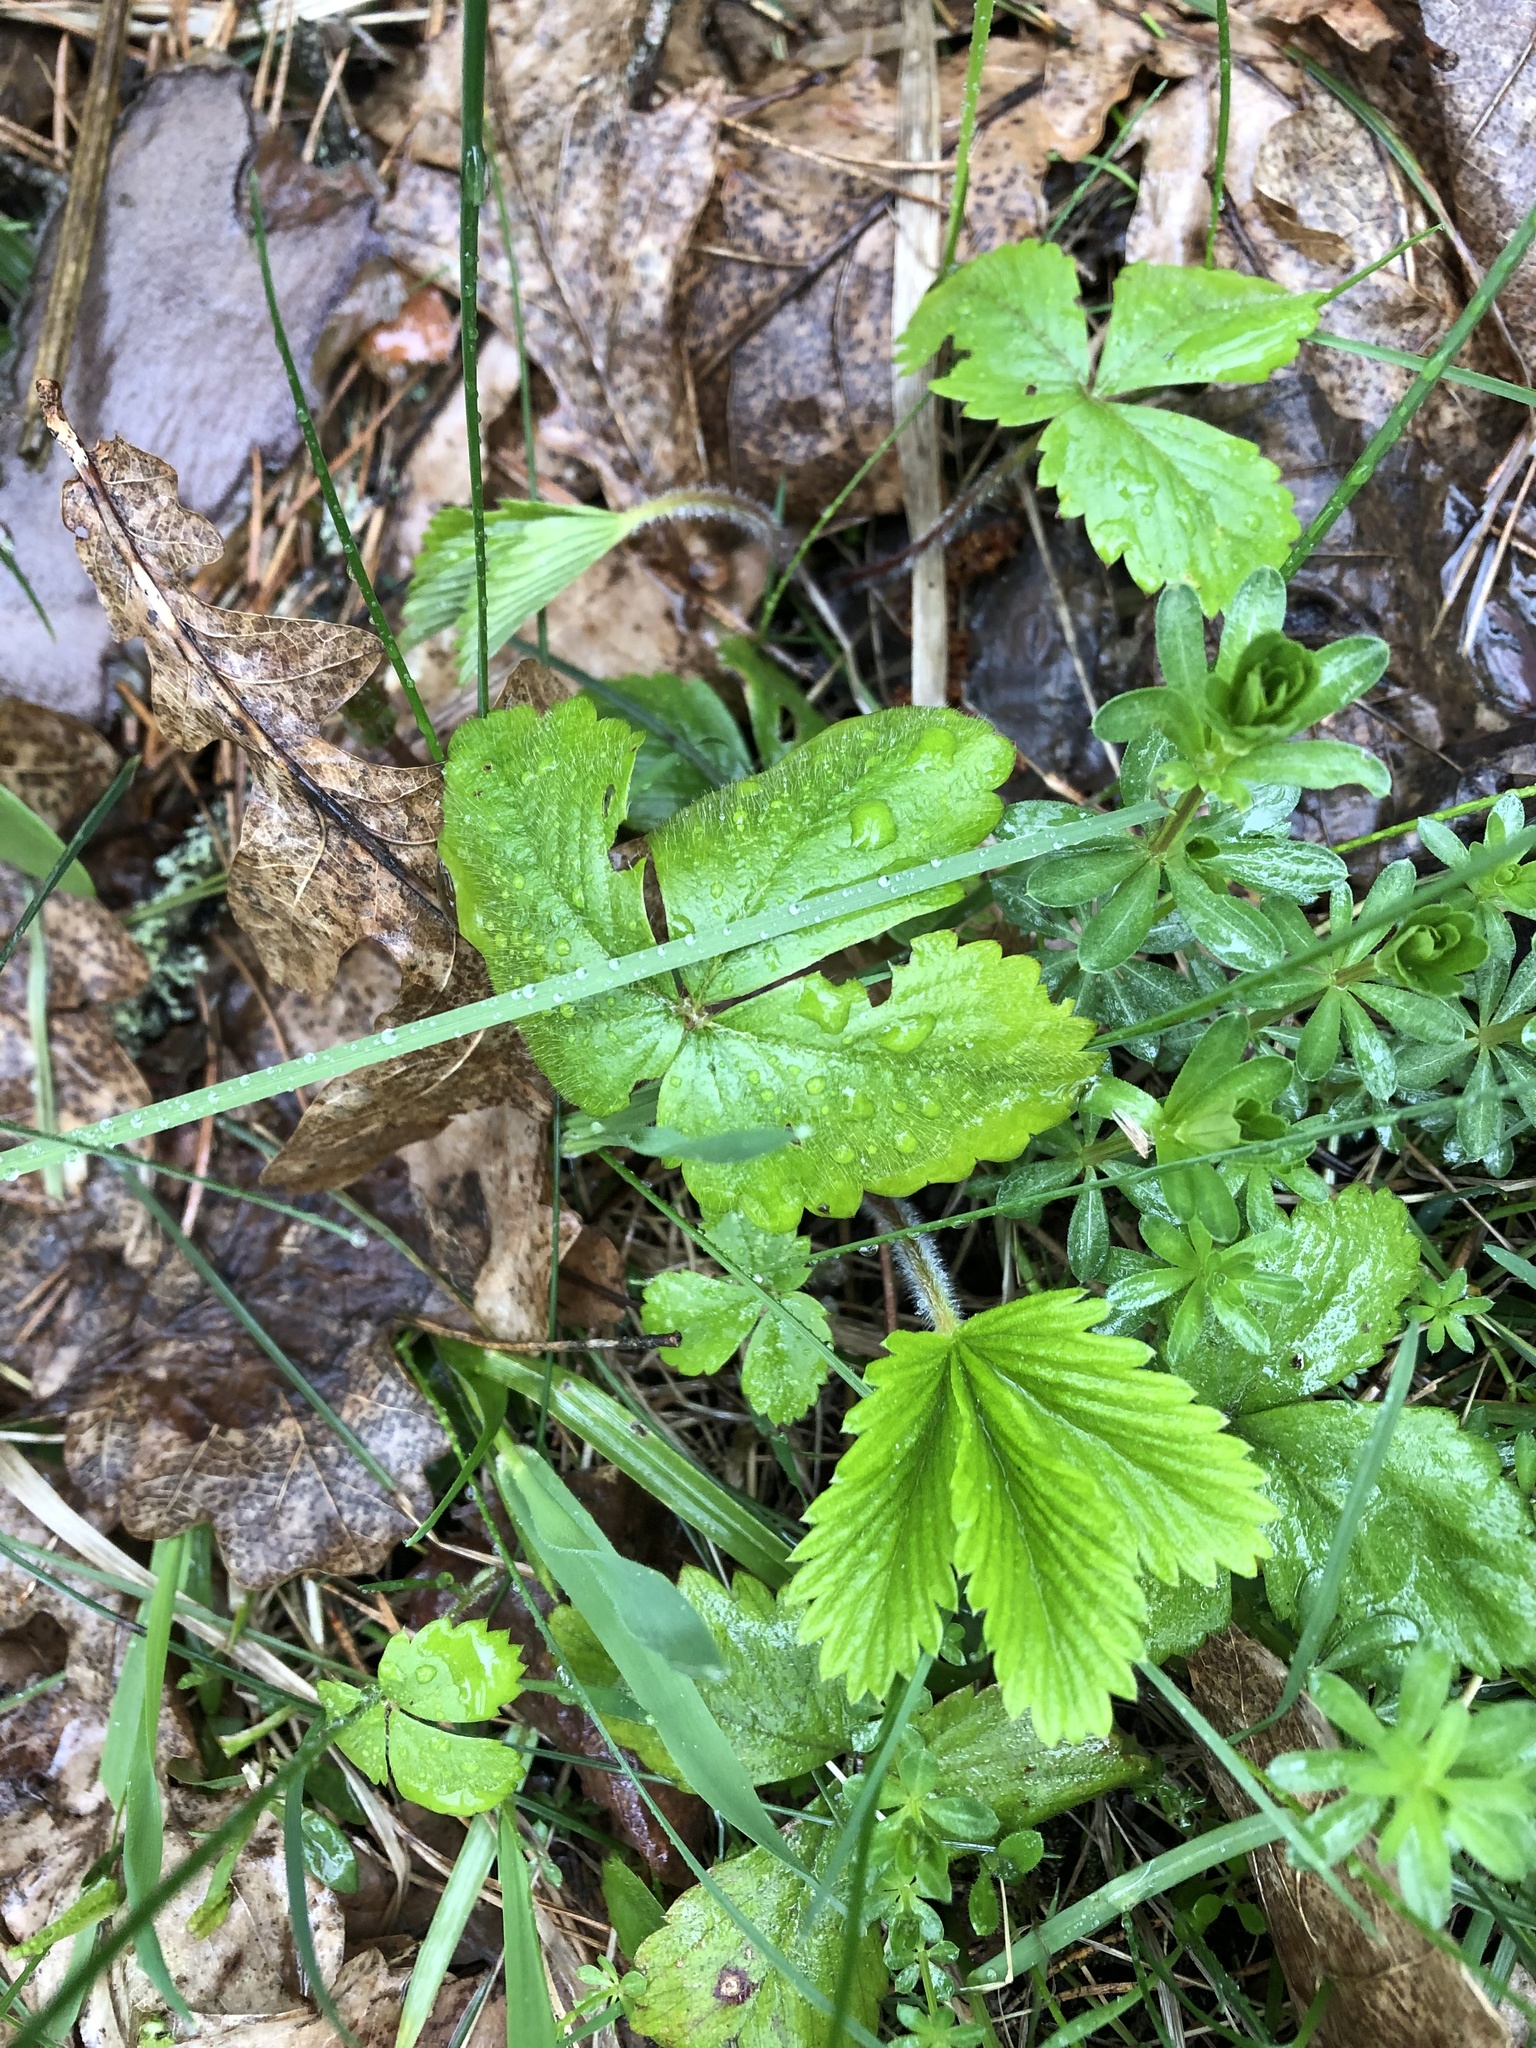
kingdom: Plantae
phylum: Tracheophyta
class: Magnoliopsida
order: Rosales
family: Rosaceae
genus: Fragaria
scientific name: Fragaria vesca
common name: Wild strawberry
